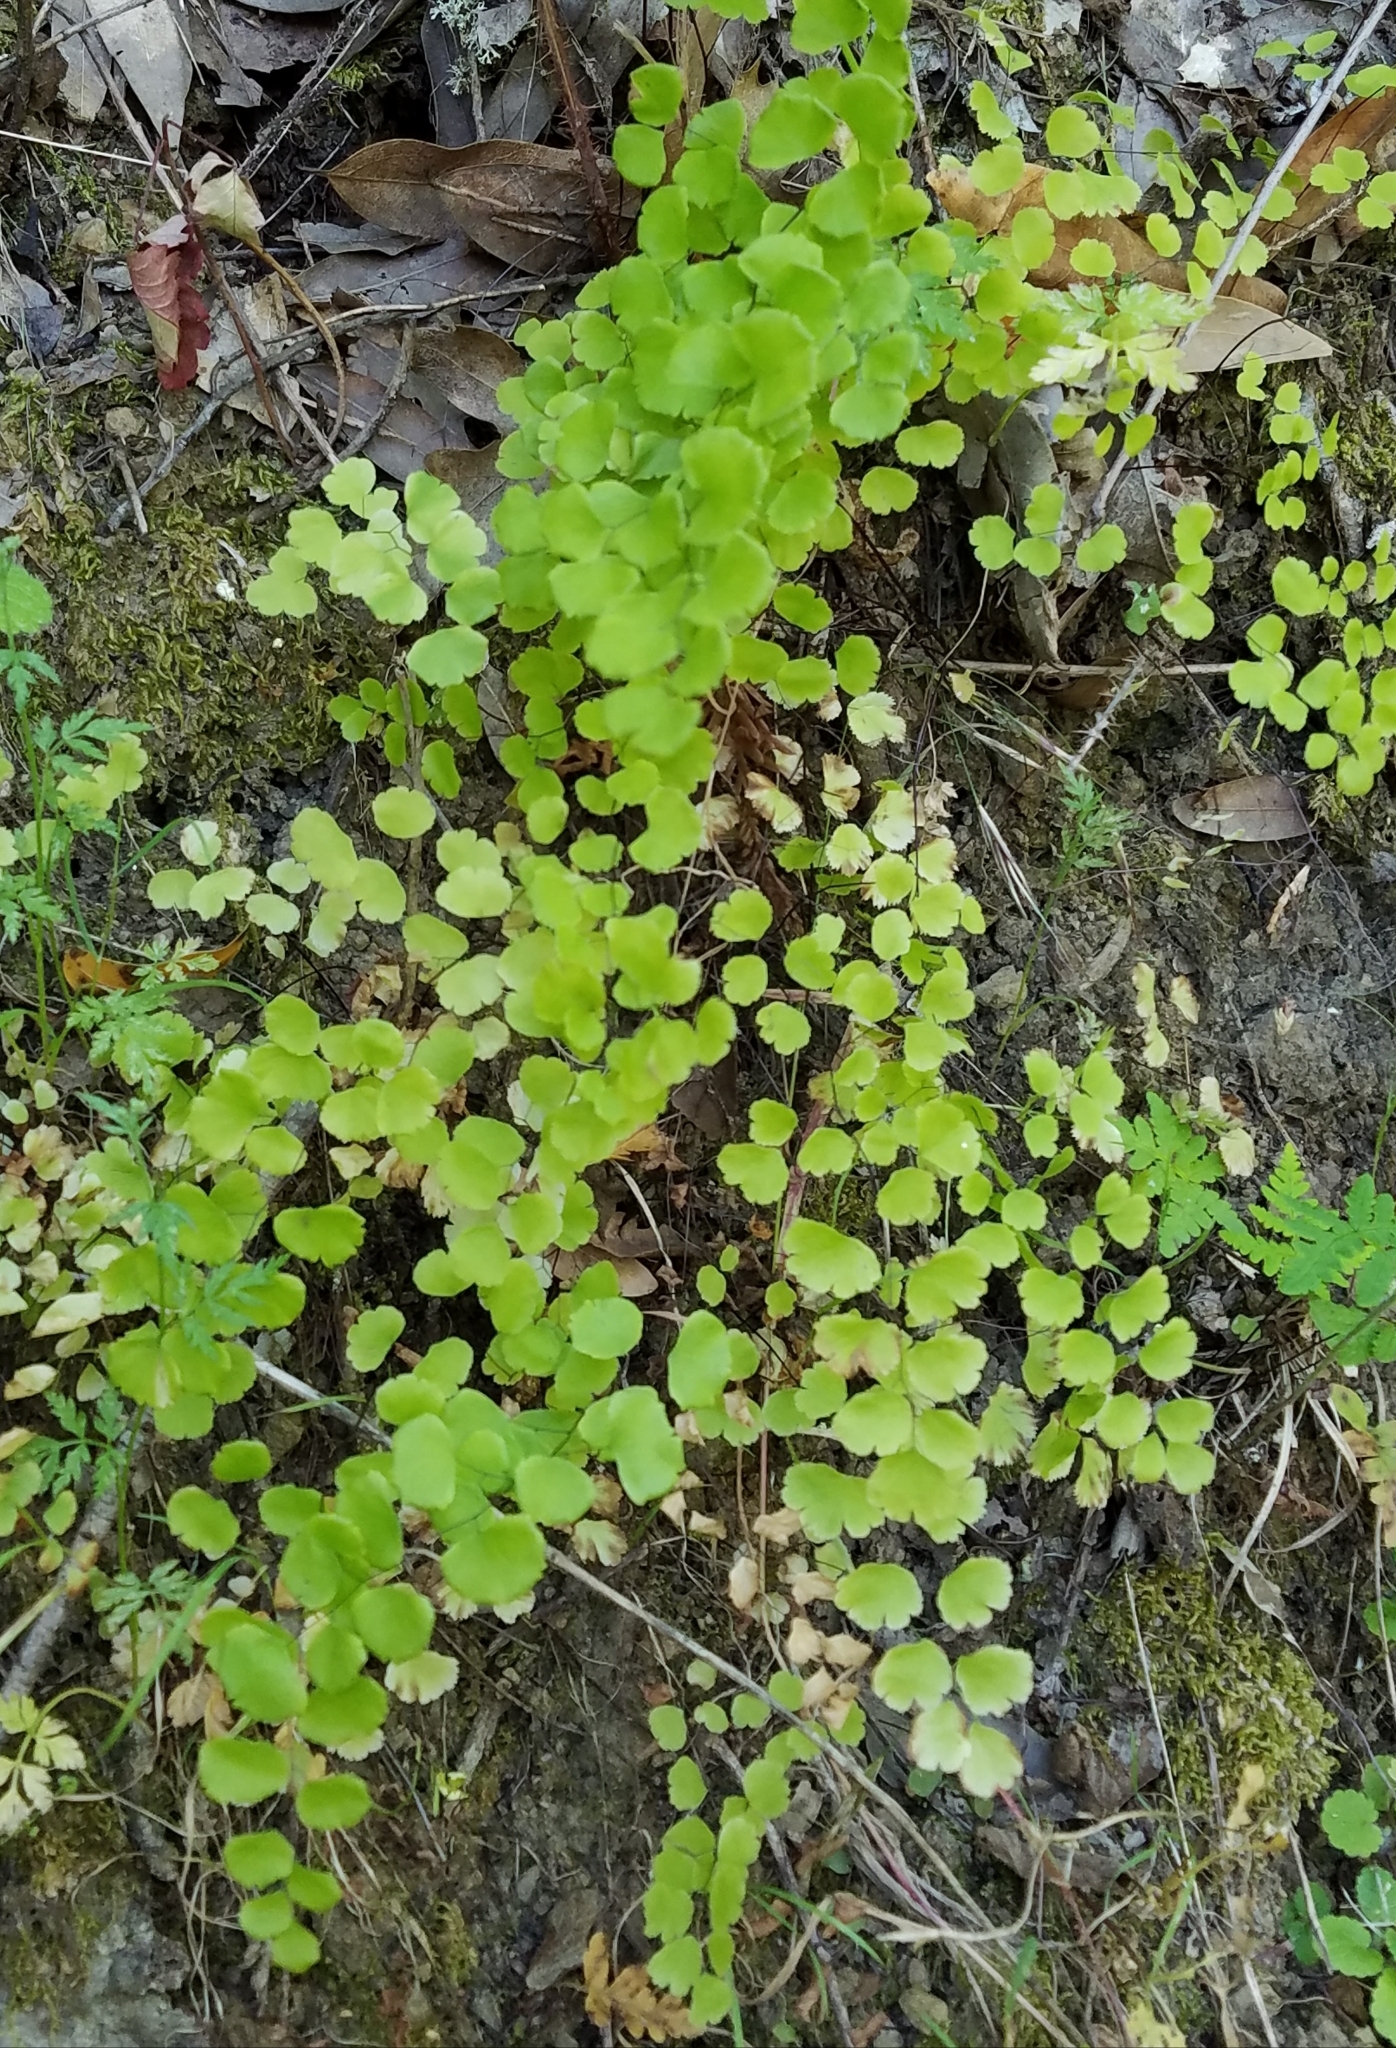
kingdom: Plantae
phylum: Tracheophyta
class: Polypodiopsida
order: Polypodiales
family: Pteridaceae
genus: Adiantum
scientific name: Adiantum jordanii
